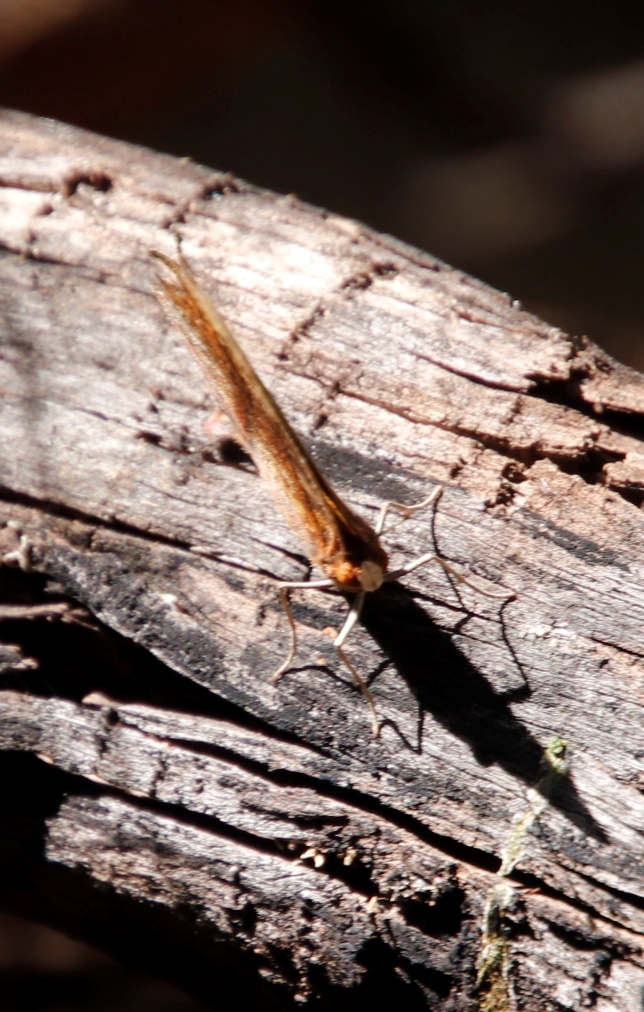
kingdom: Animalia
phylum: Arthropoda
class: Insecta
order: Lepidoptera
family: Nymphalidae
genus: Junonia
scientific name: Junonia antilope
